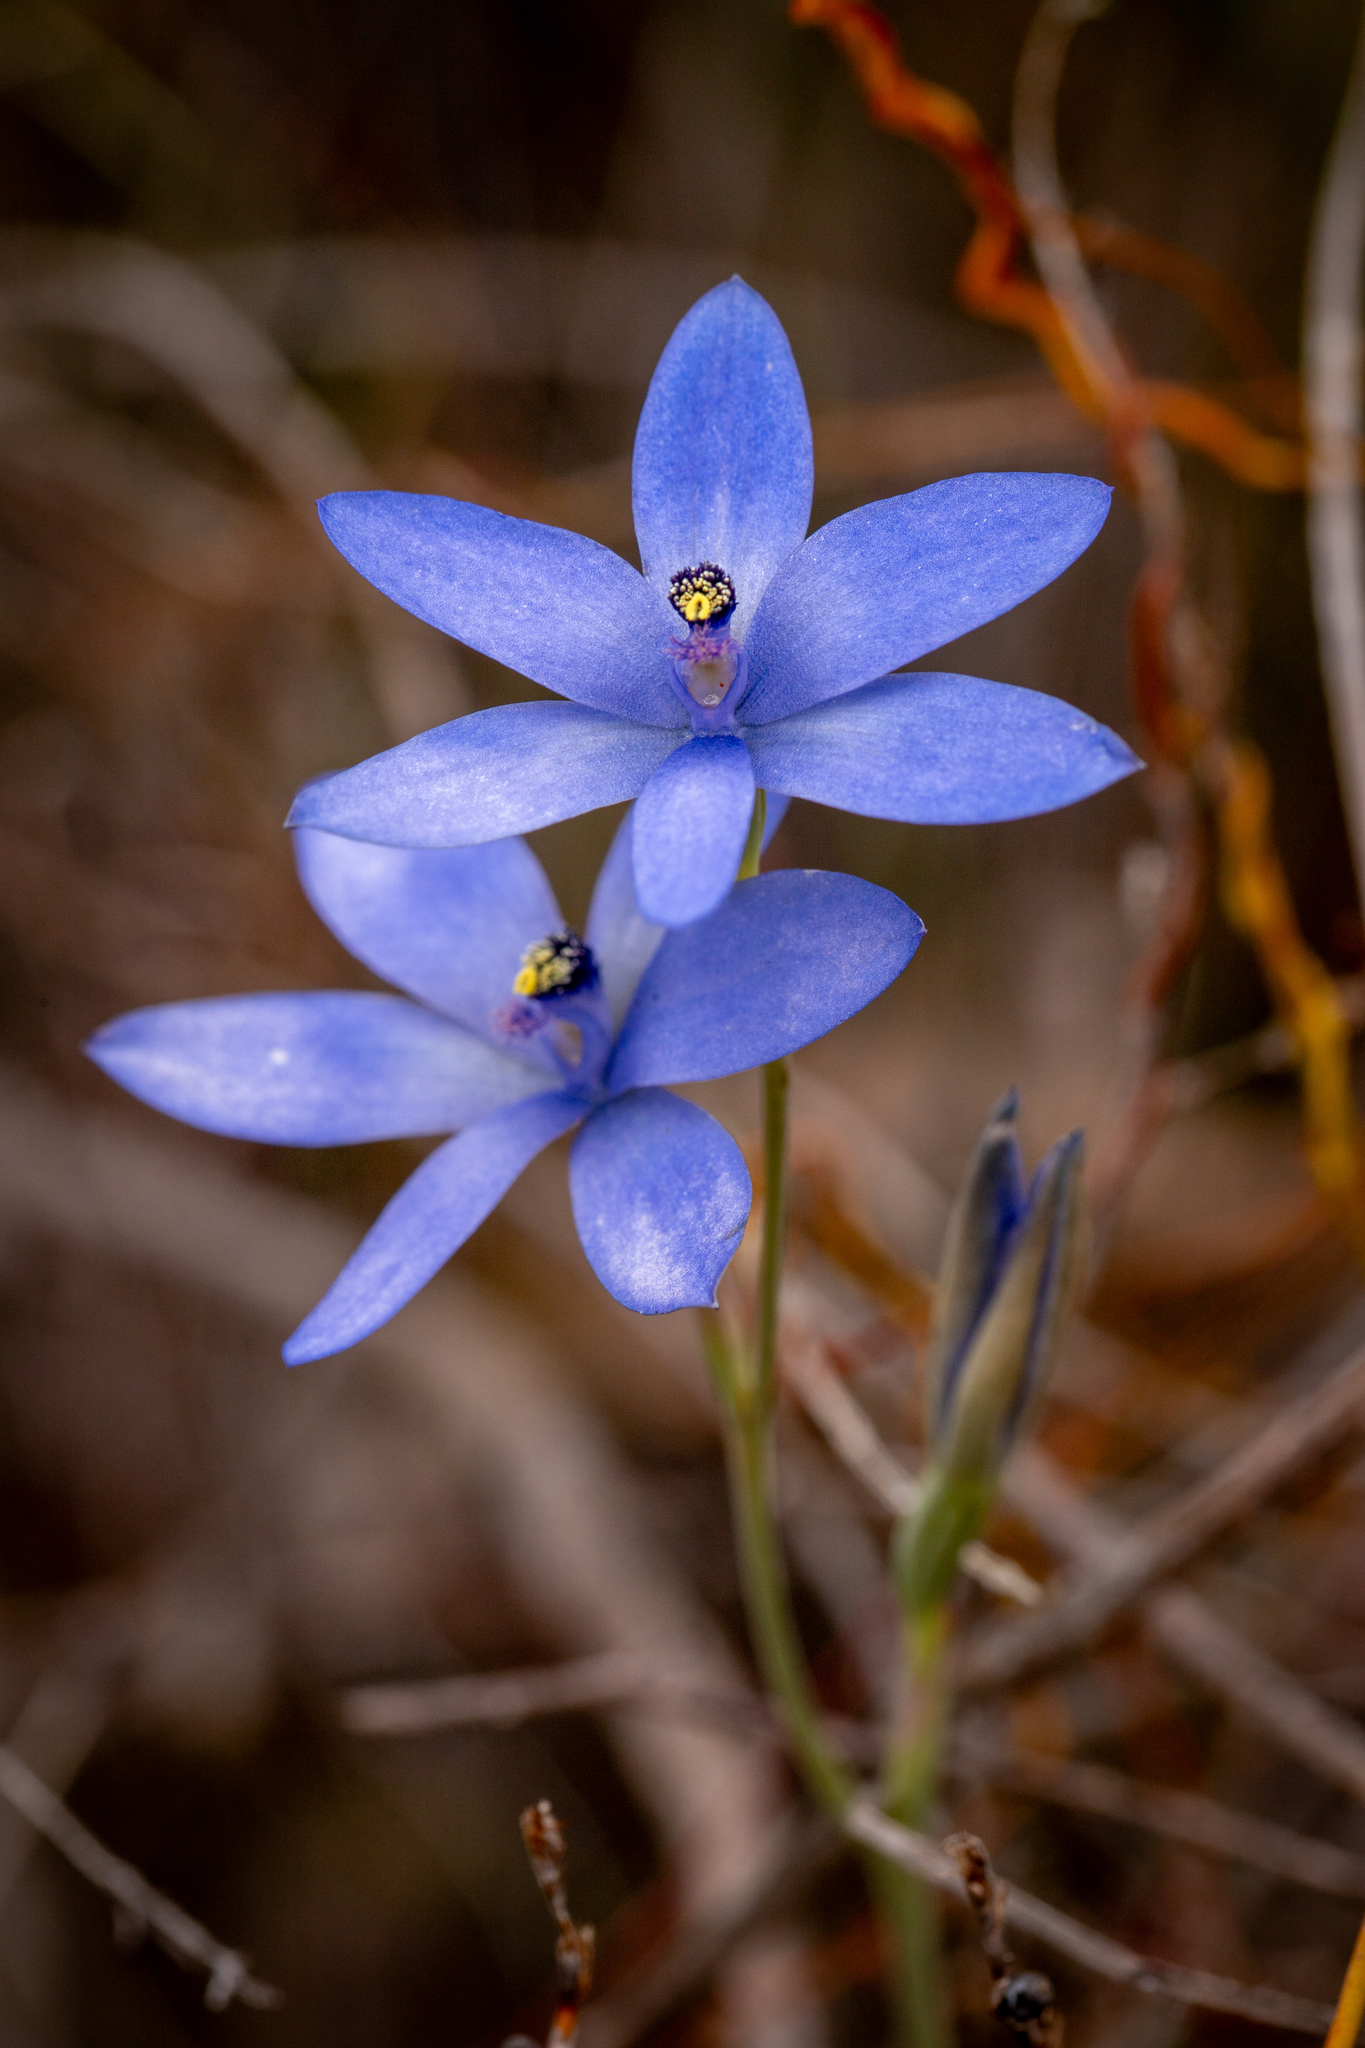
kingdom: Plantae
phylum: Tracheophyta
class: Liliopsida
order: Asparagales
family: Orchidaceae
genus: Thelymitra
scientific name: Thelymitra crinita
